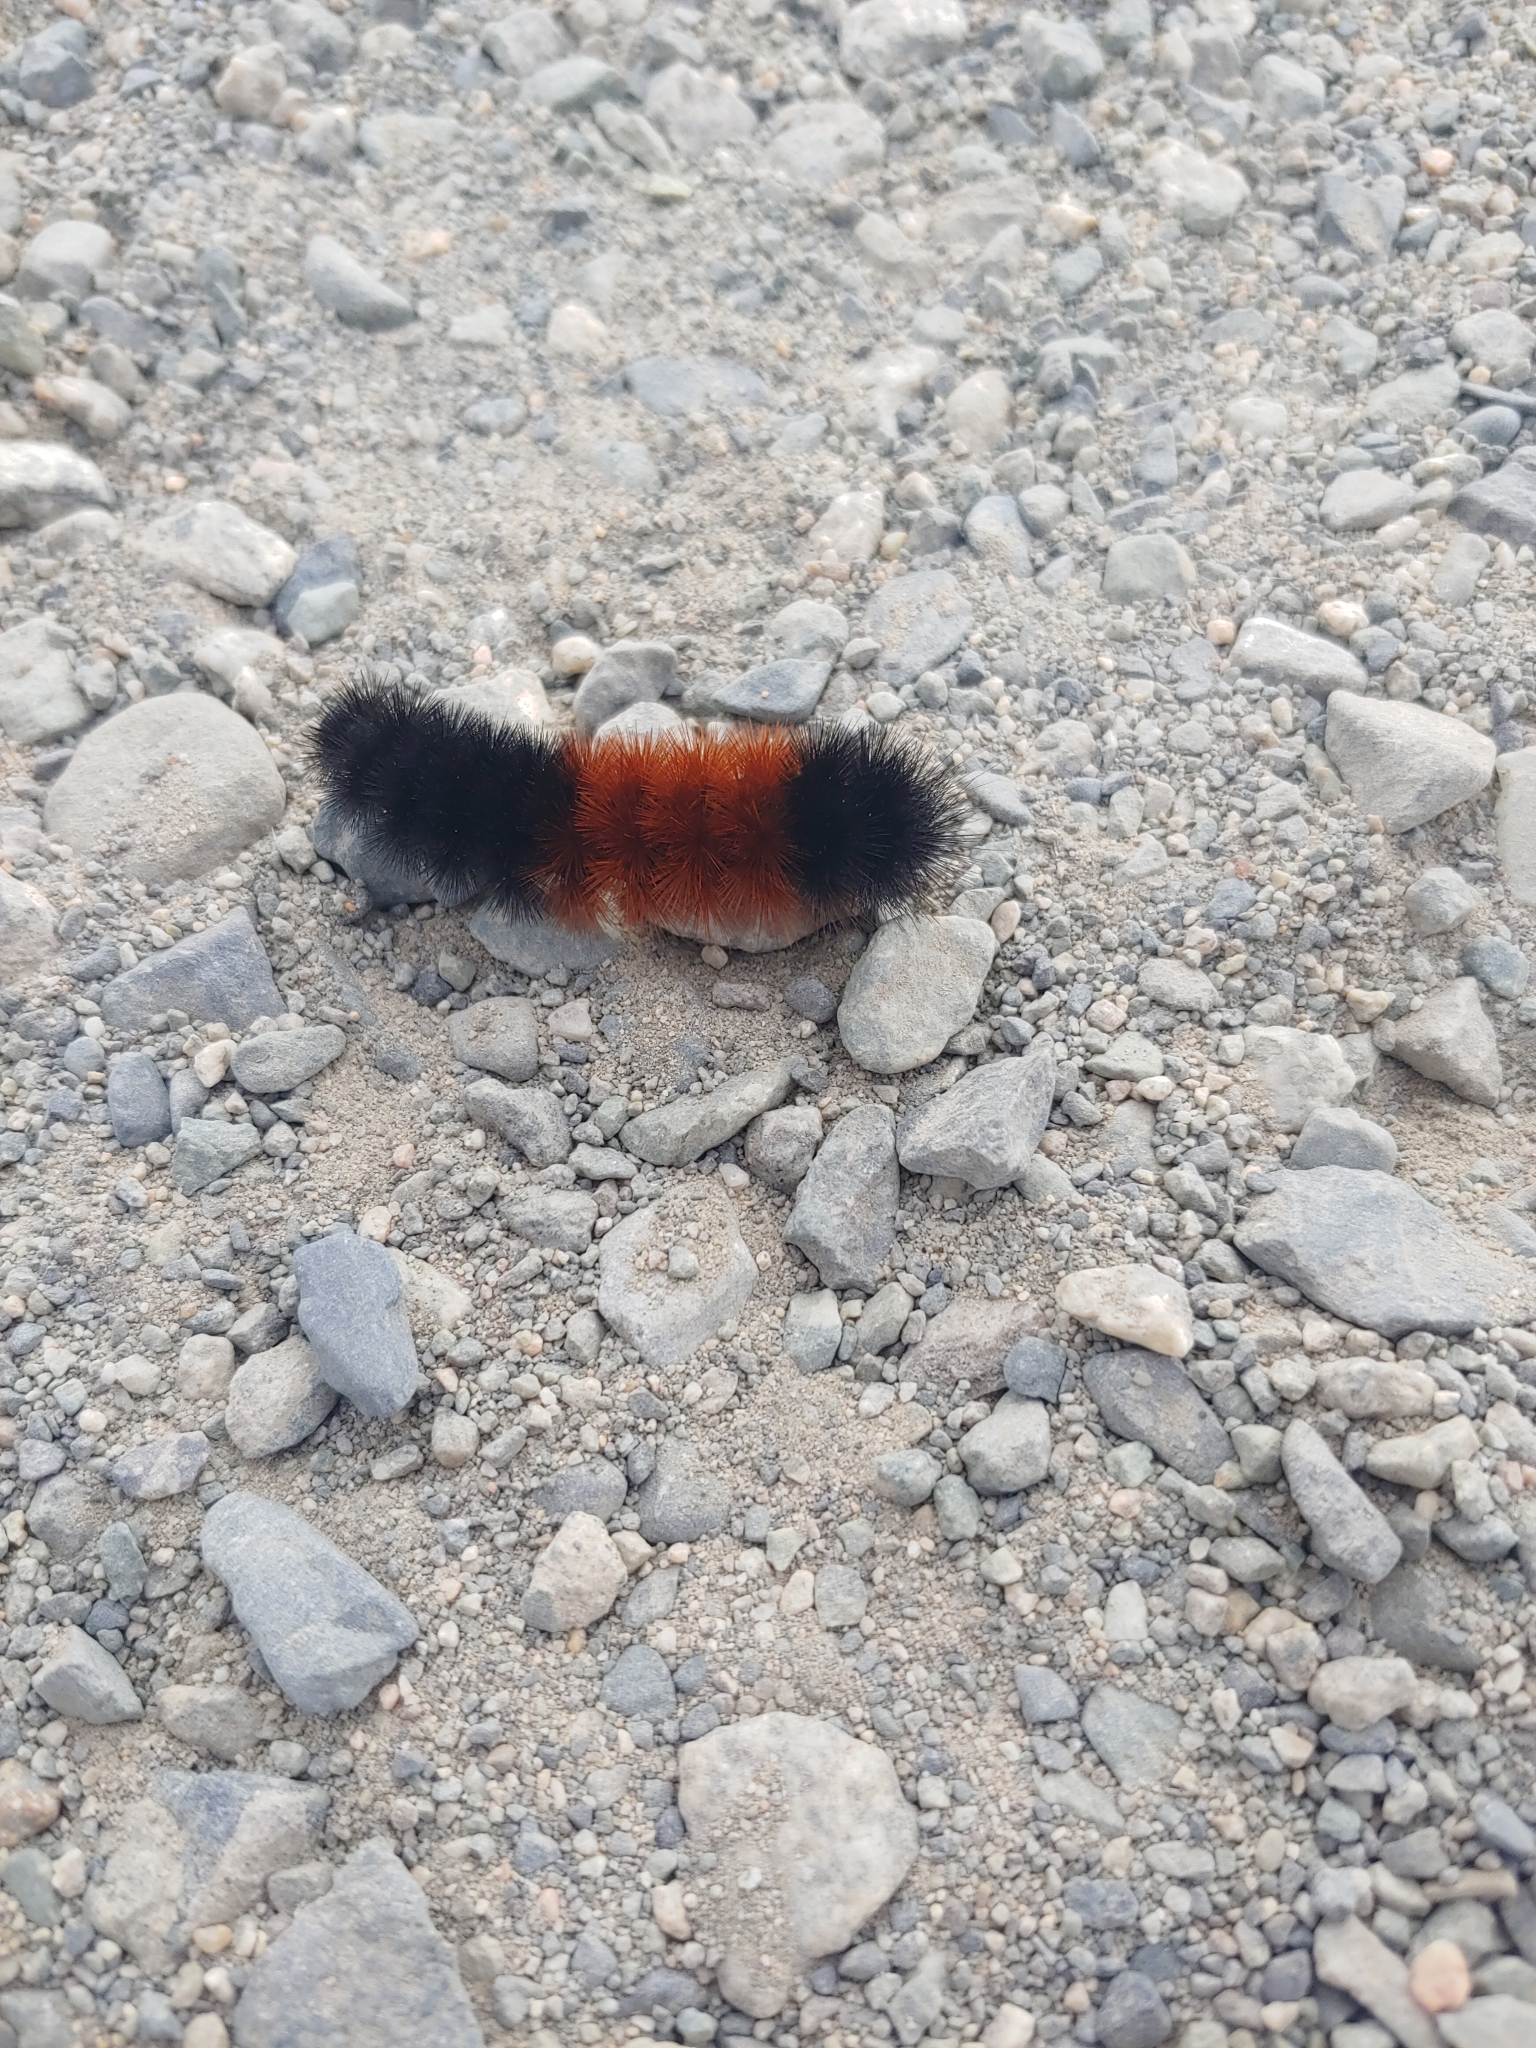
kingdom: Animalia
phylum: Arthropoda
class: Insecta
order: Lepidoptera
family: Erebidae
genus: Pyrrharctia
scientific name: Pyrrharctia isabella
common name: Isabella tiger moth
